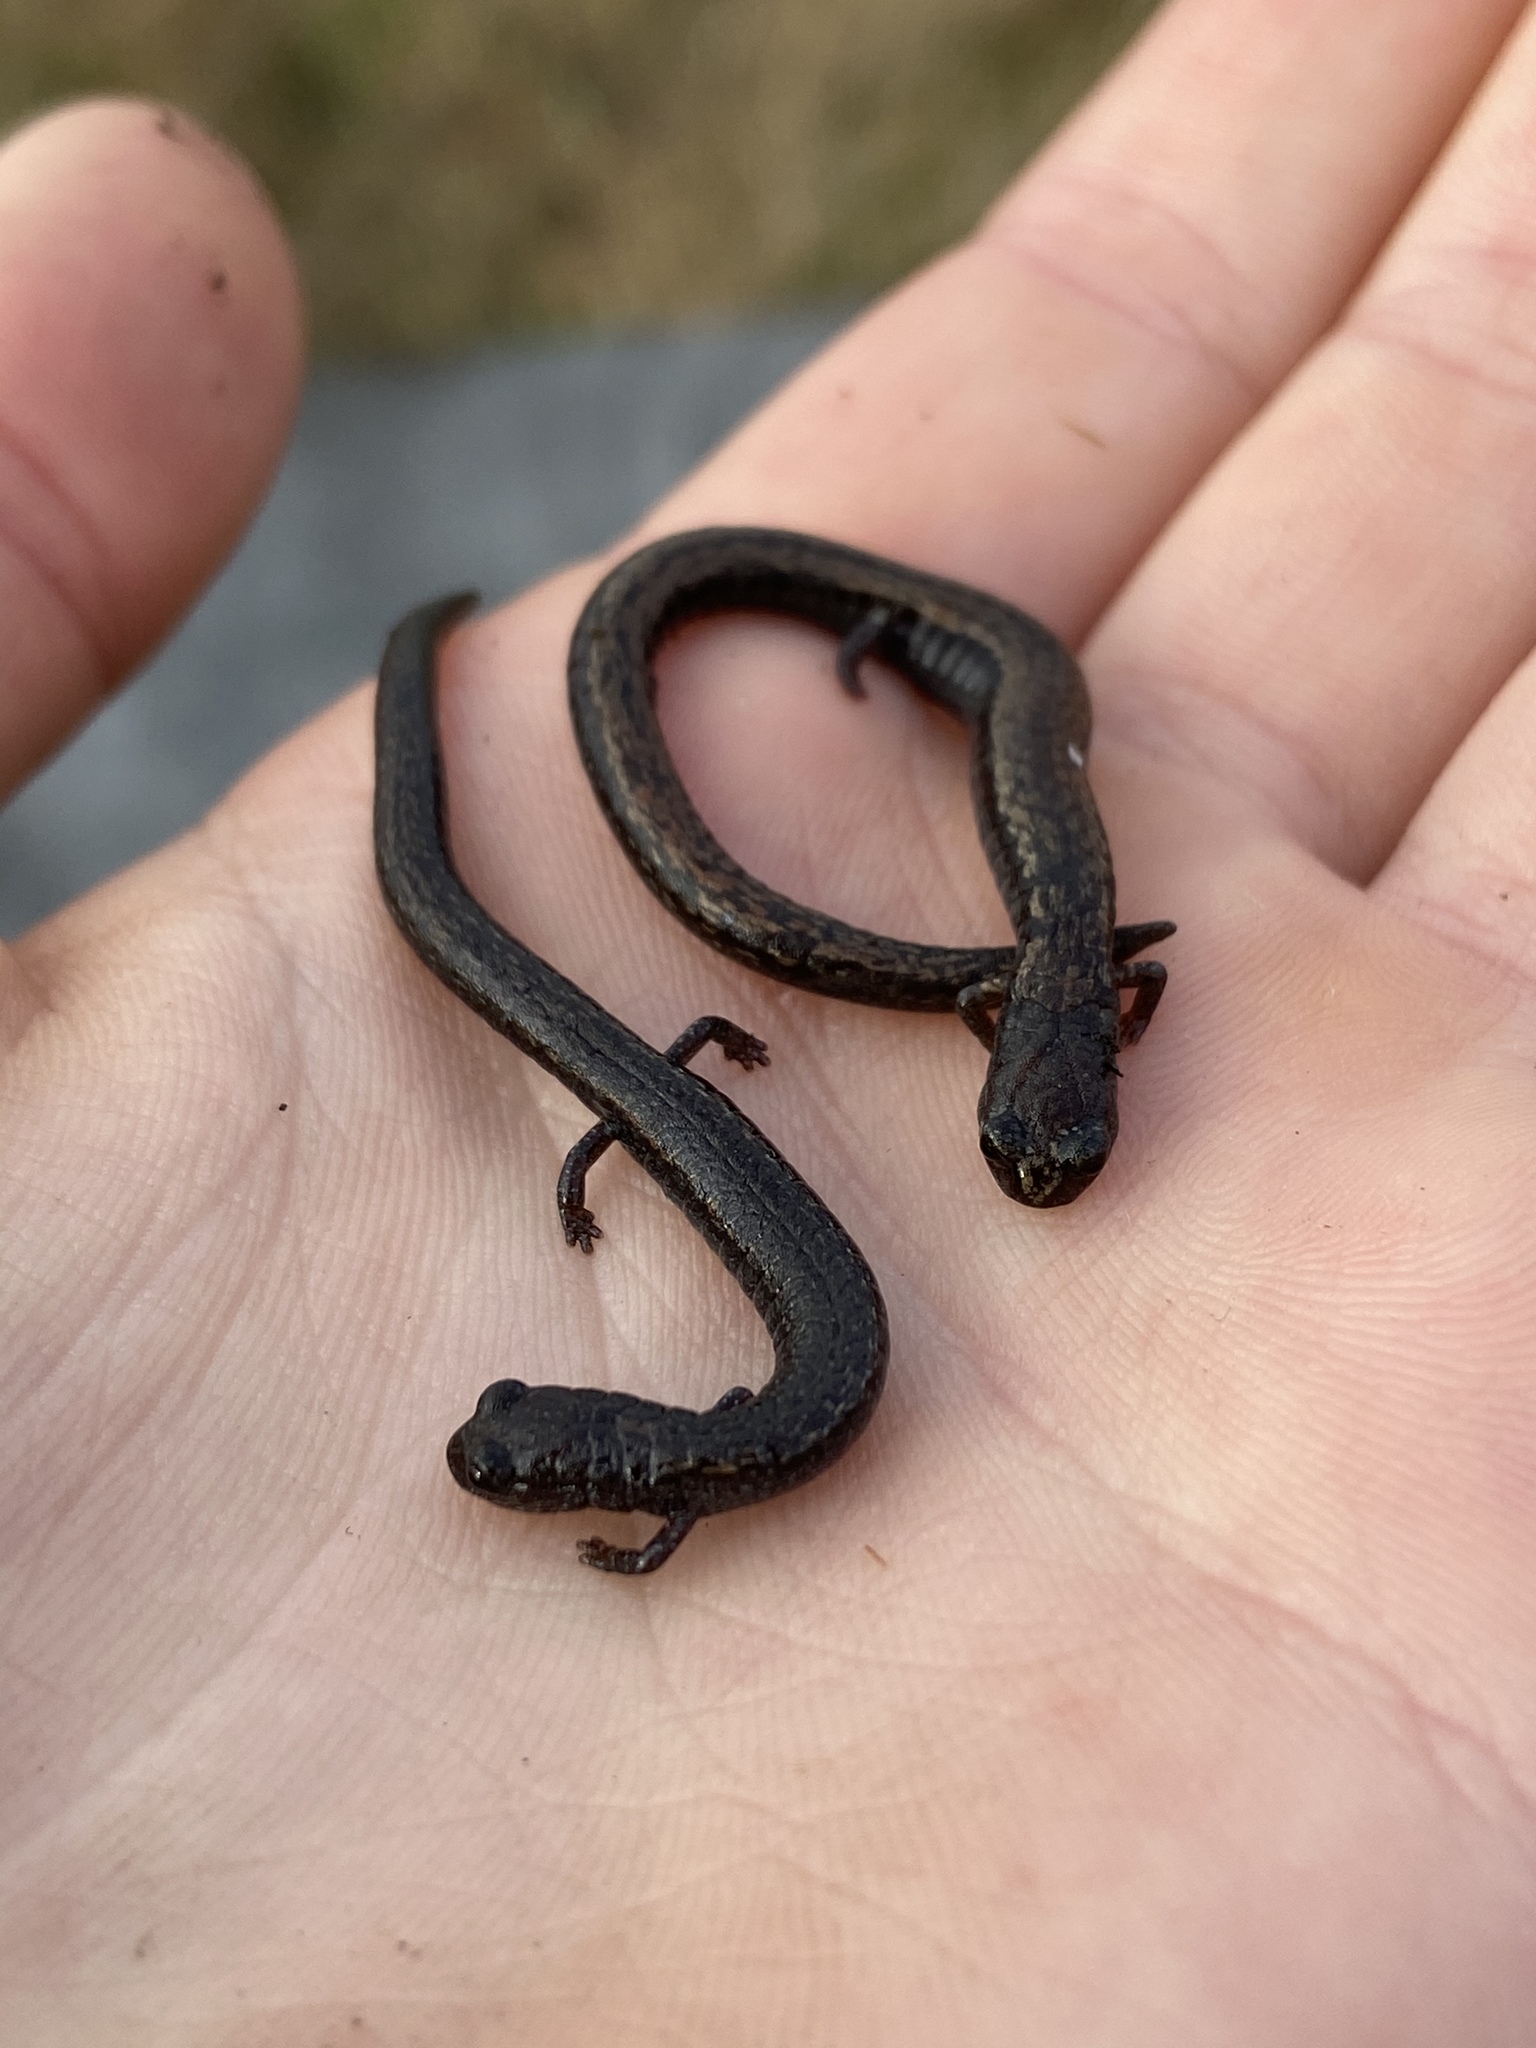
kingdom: Animalia
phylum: Chordata
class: Amphibia
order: Caudata
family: Plethodontidae
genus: Batrachoseps
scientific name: Batrachoseps attenuatus
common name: California slender salamander
